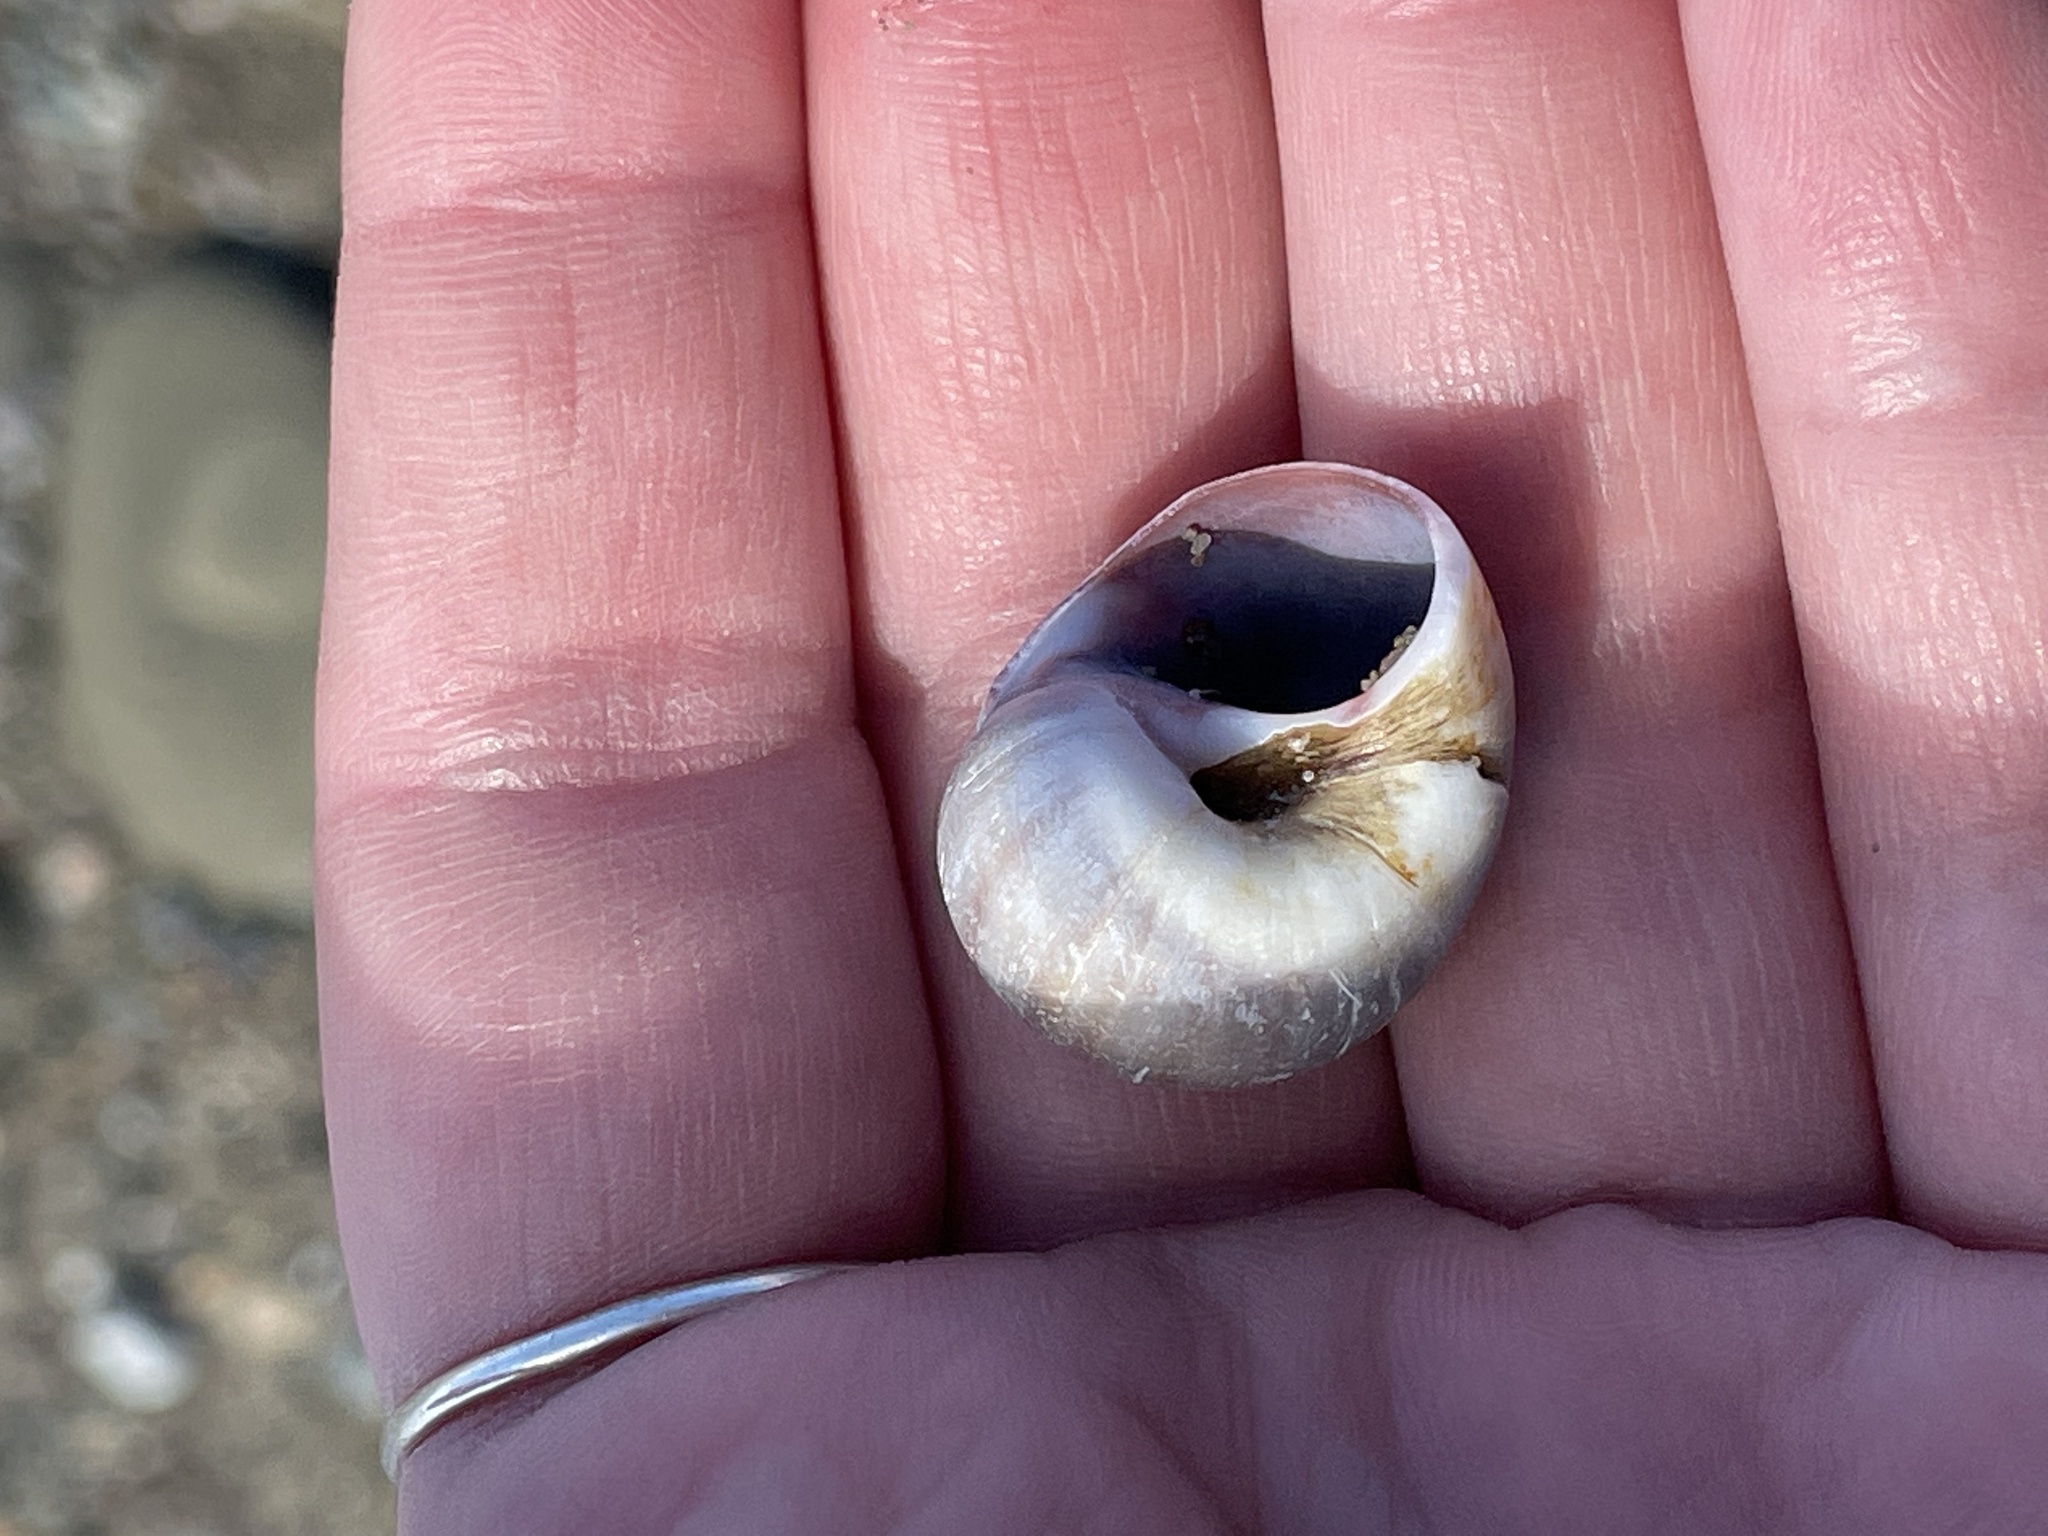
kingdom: Animalia
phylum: Mollusca
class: Gastropoda
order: Littorinimorpha
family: Naticidae
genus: Euspira
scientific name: Euspira heros
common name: Common northern moonsnail
